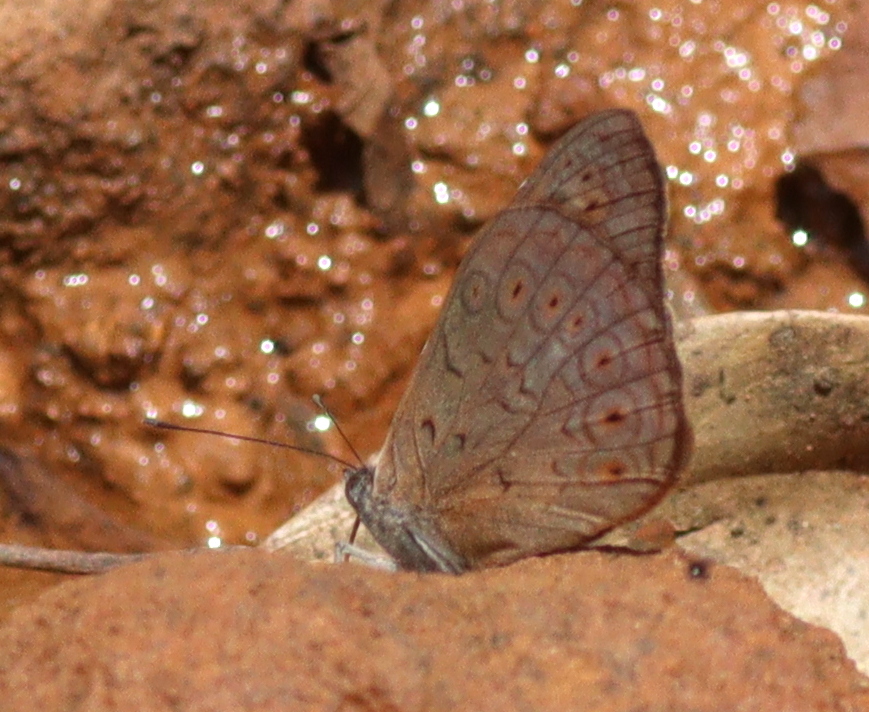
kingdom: Animalia
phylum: Arthropoda
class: Insecta
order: Lepidoptera
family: Nymphalidae
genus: Asterope
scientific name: Asterope occidentalium
